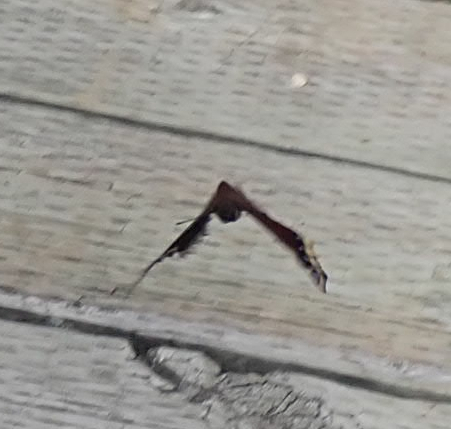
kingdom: Animalia
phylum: Arthropoda
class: Insecta
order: Lepidoptera
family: Nymphalidae
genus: Nymphalis
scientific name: Nymphalis antiopa
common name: Camberwell beauty
